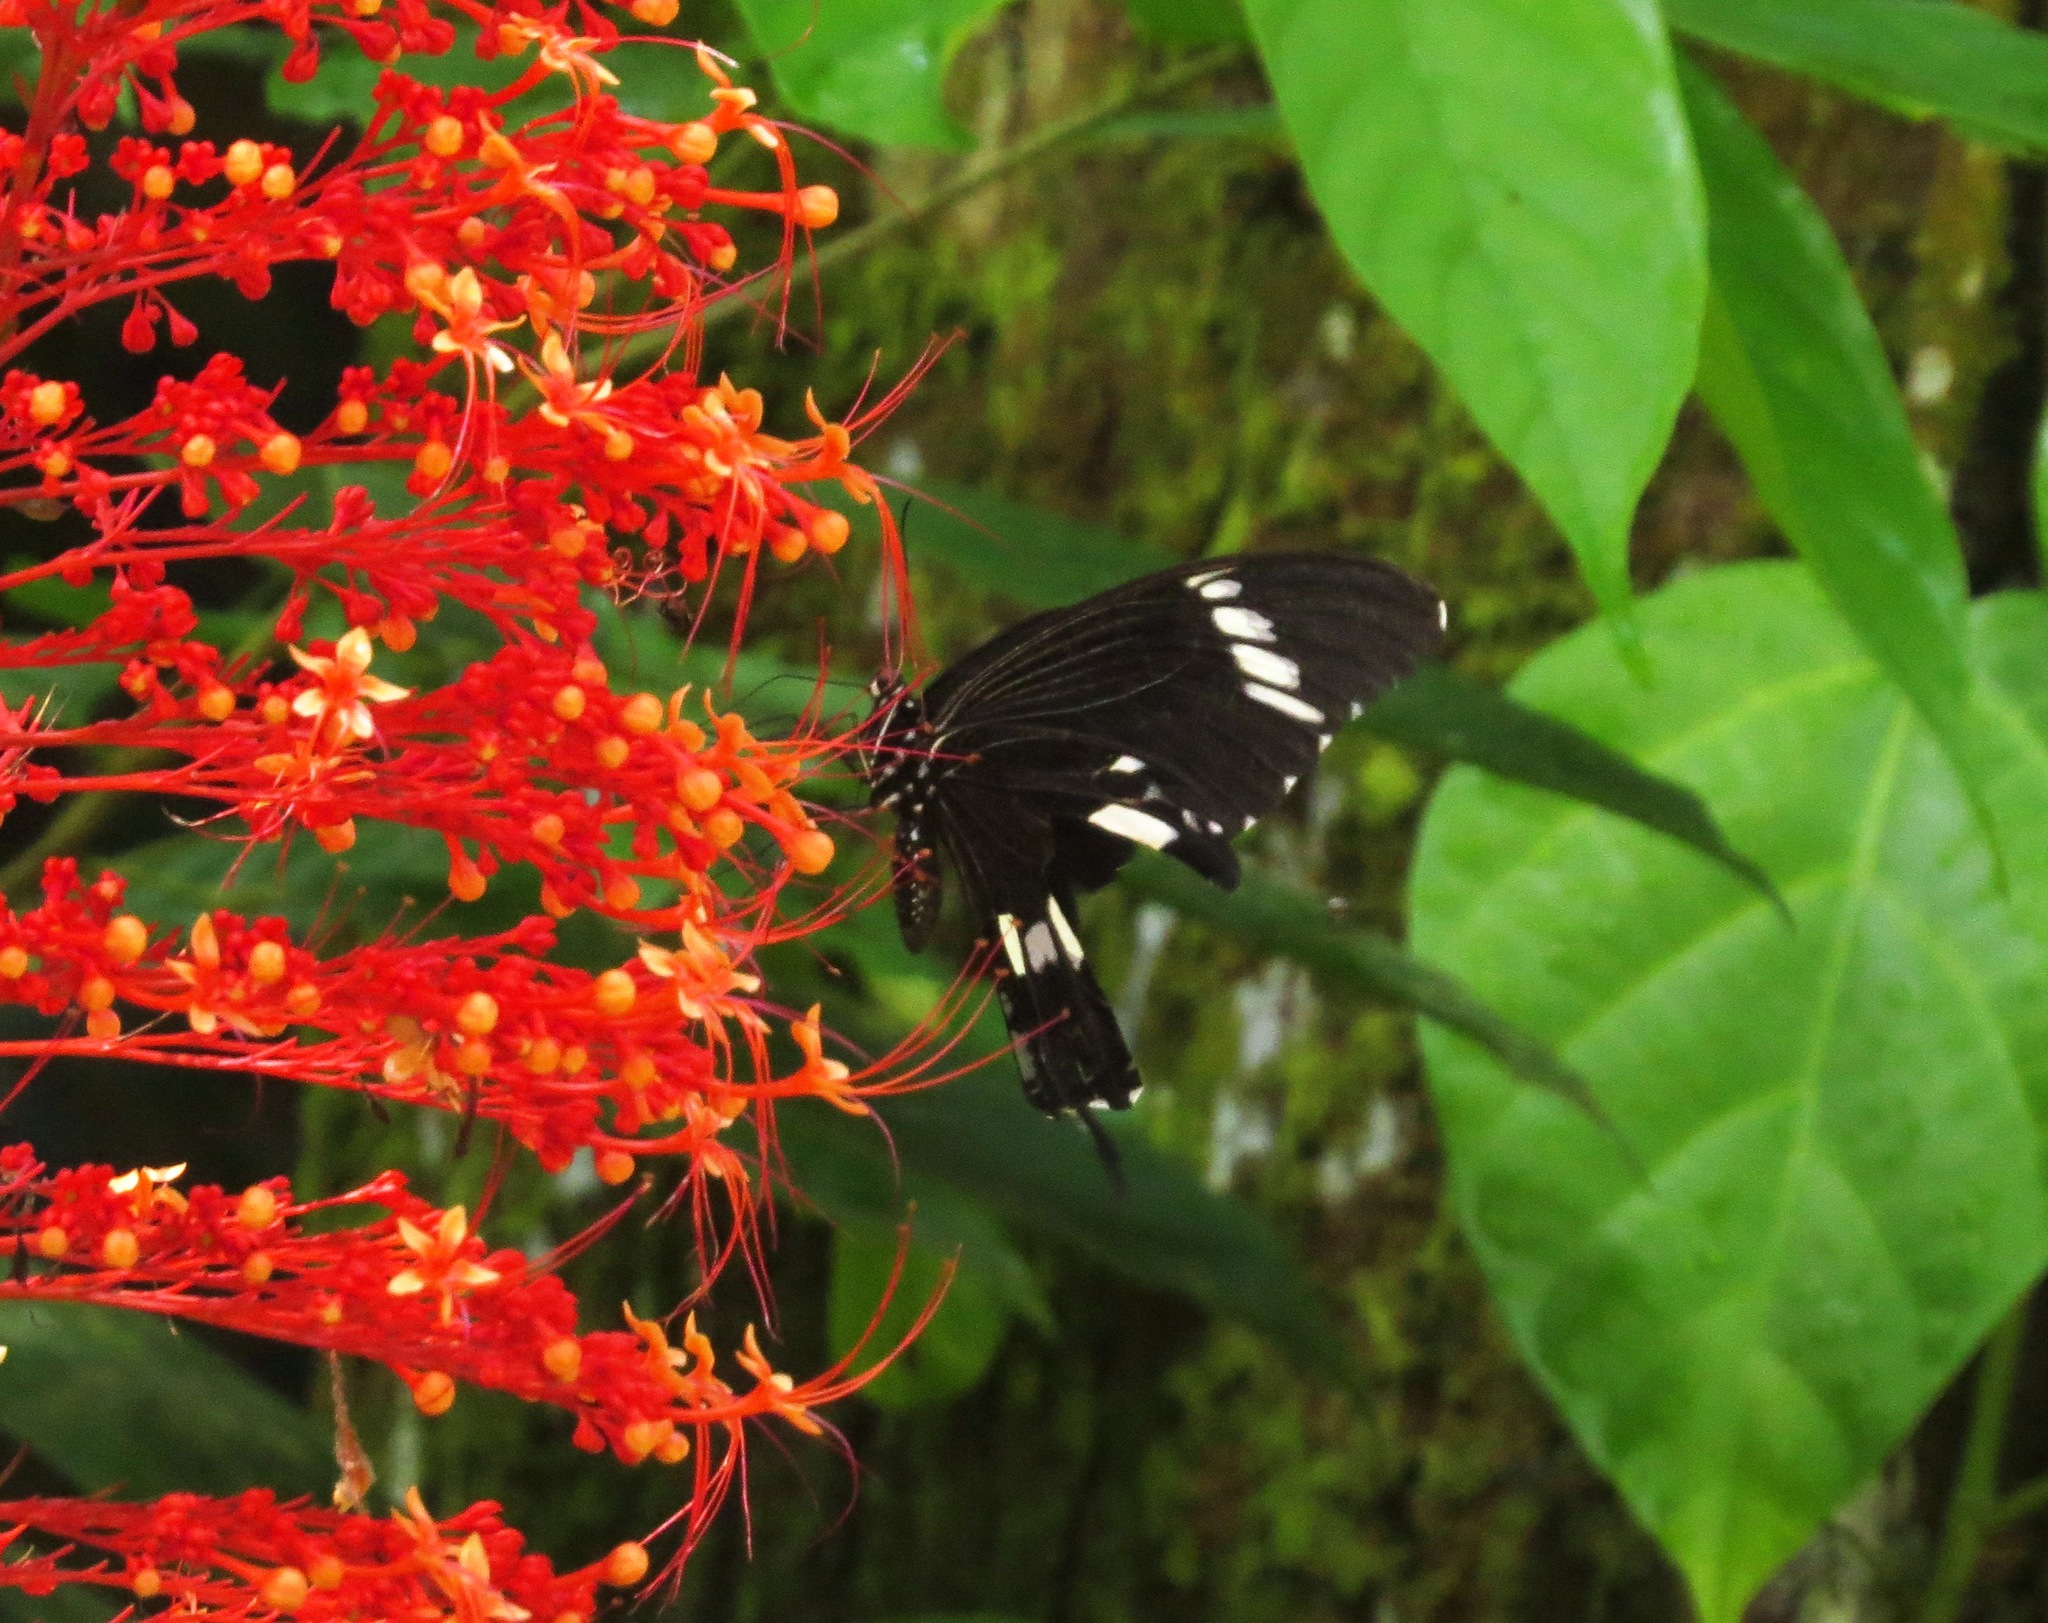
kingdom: Animalia
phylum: Arthropoda
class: Insecta
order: Lepidoptera
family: Papilionidae
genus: Papilio
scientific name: Papilio nephelus
